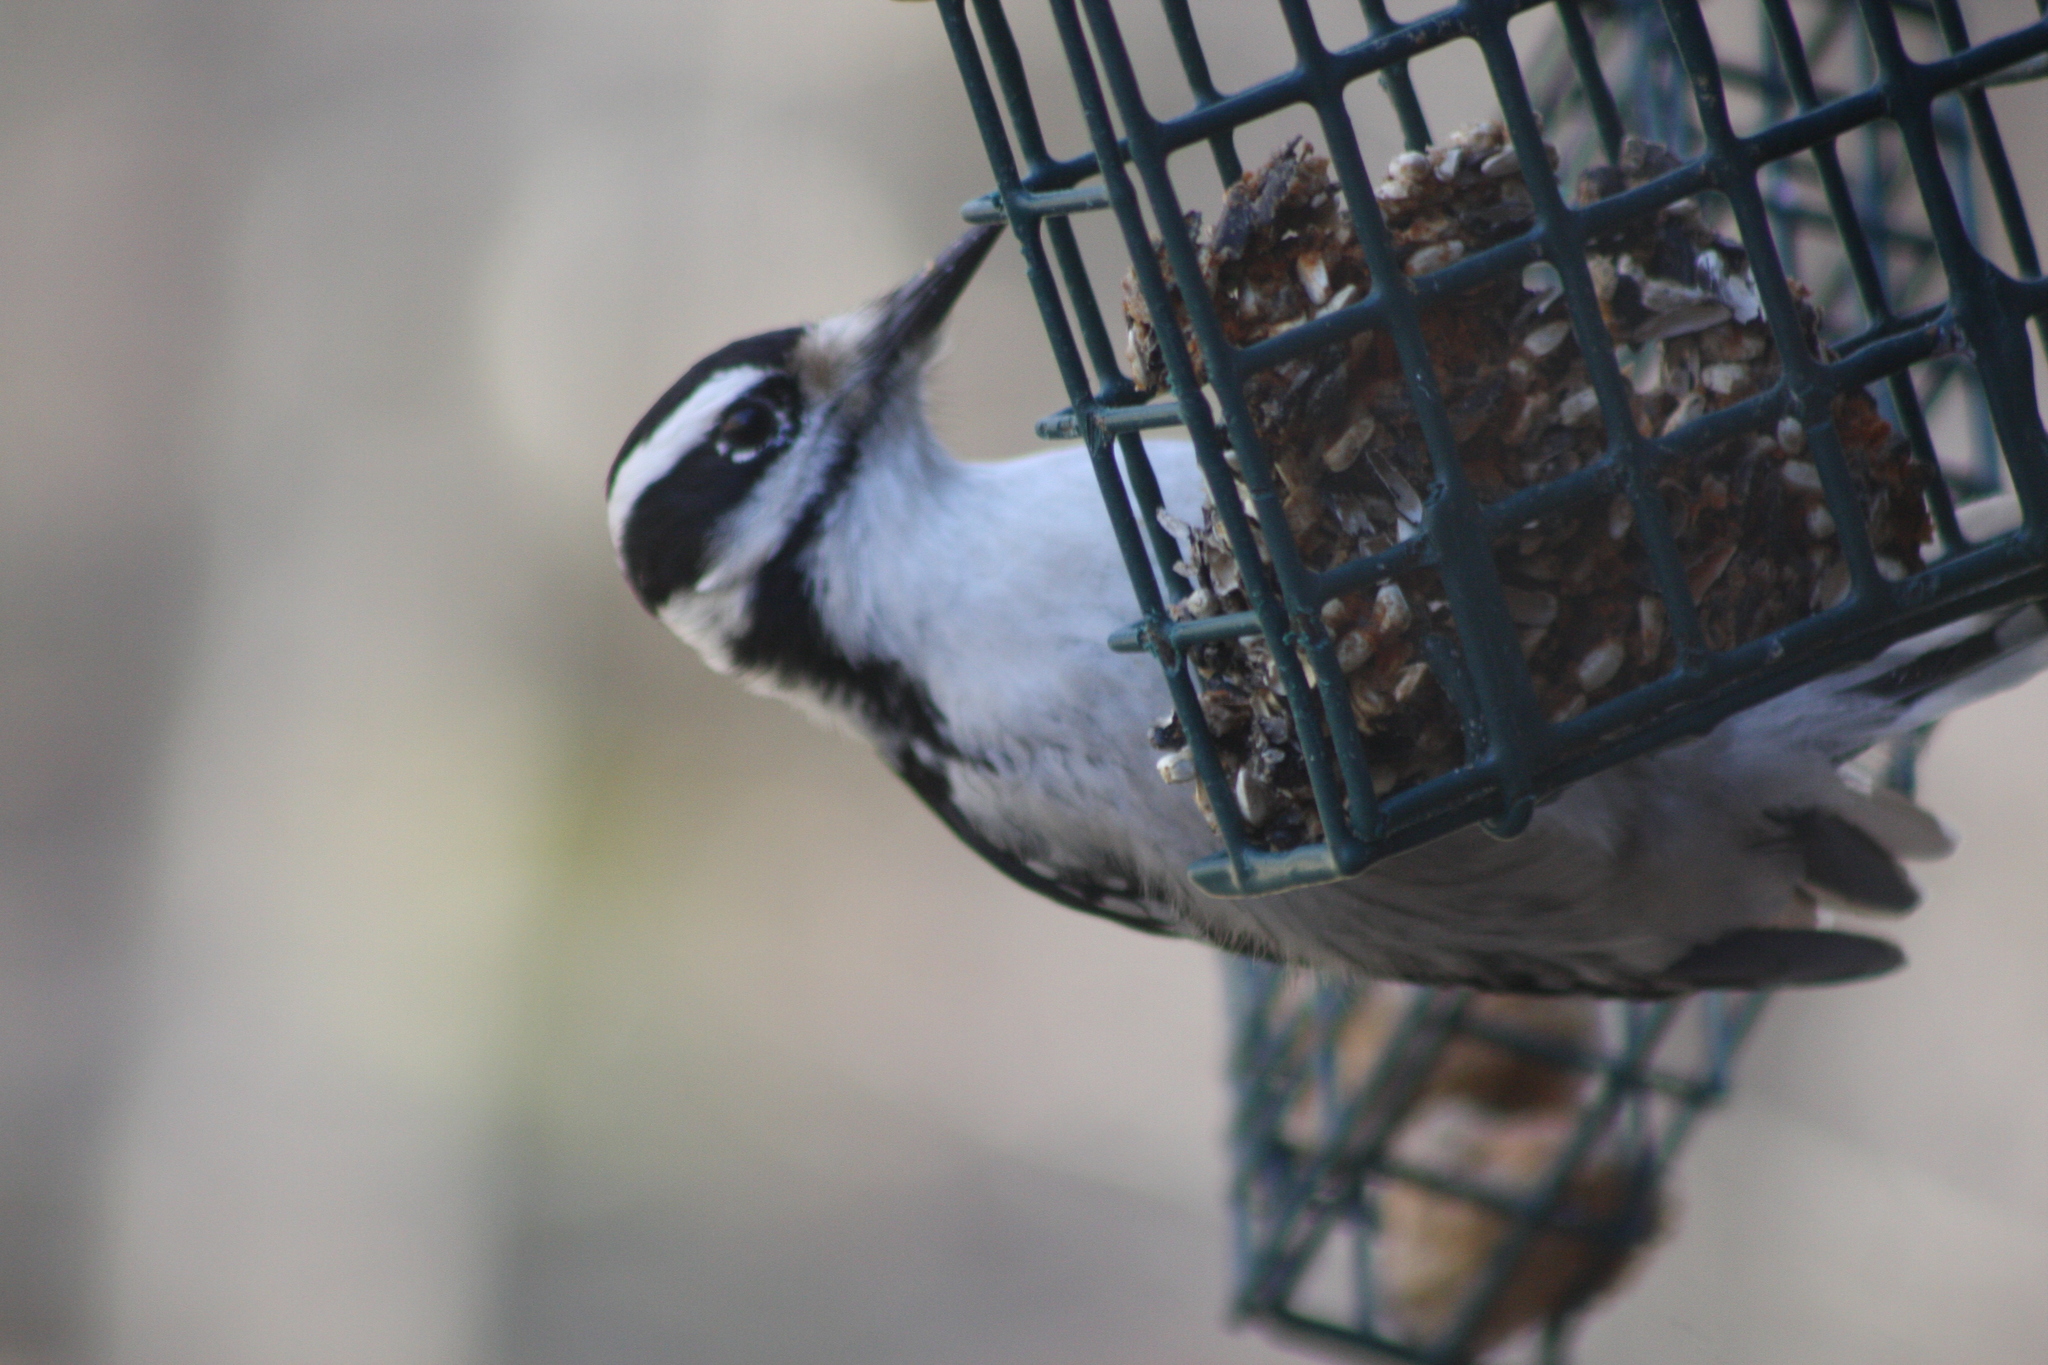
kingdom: Animalia
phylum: Chordata
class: Aves
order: Piciformes
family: Picidae
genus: Leuconotopicus
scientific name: Leuconotopicus villosus
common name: Hairy woodpecker
